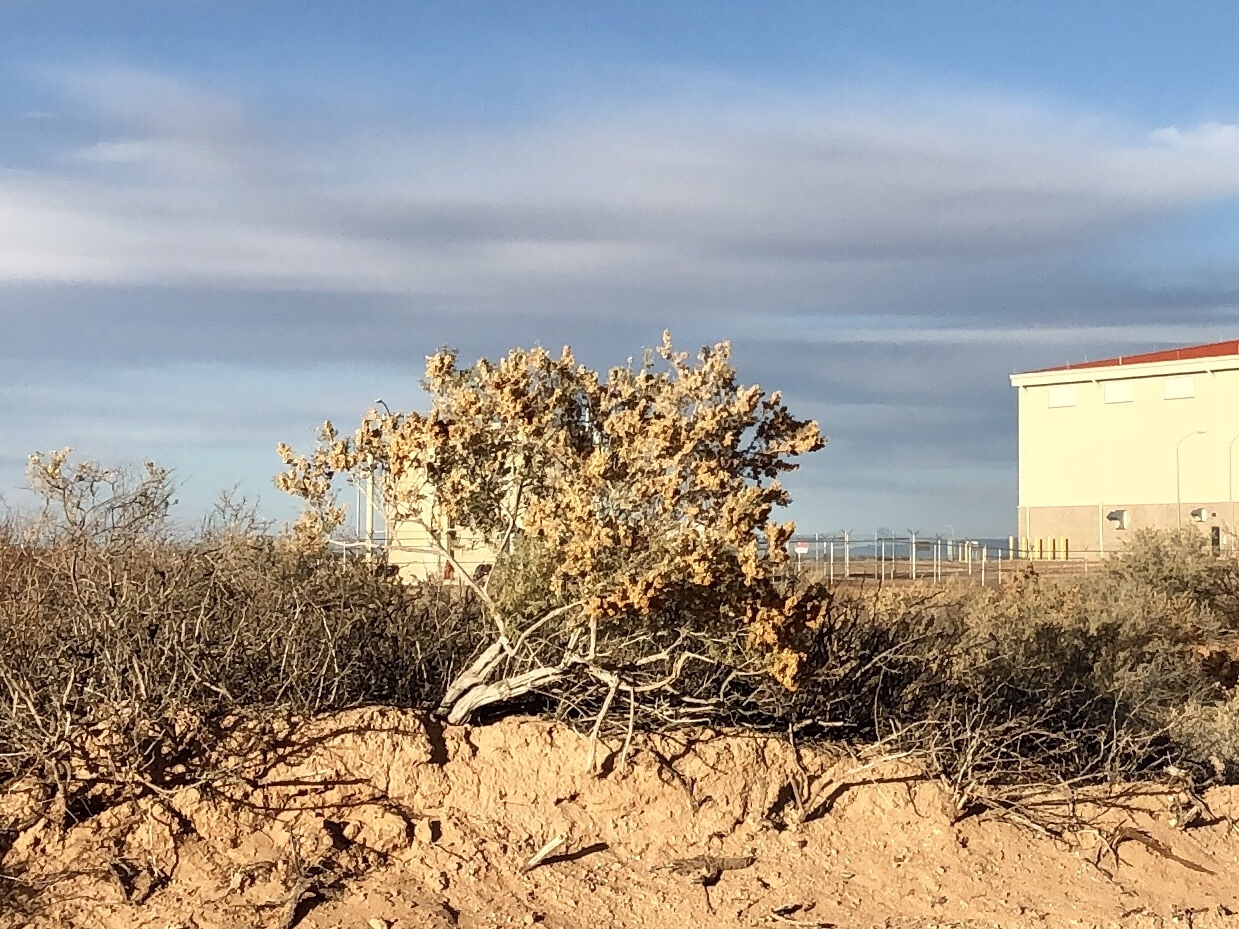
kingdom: Plantae
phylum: Tracheophyta
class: Magnoliopsida
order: Caryophyllales
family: Amaranthaceae
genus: Atriplex
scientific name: Atriplex canescens
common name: Four-wing saltbush
